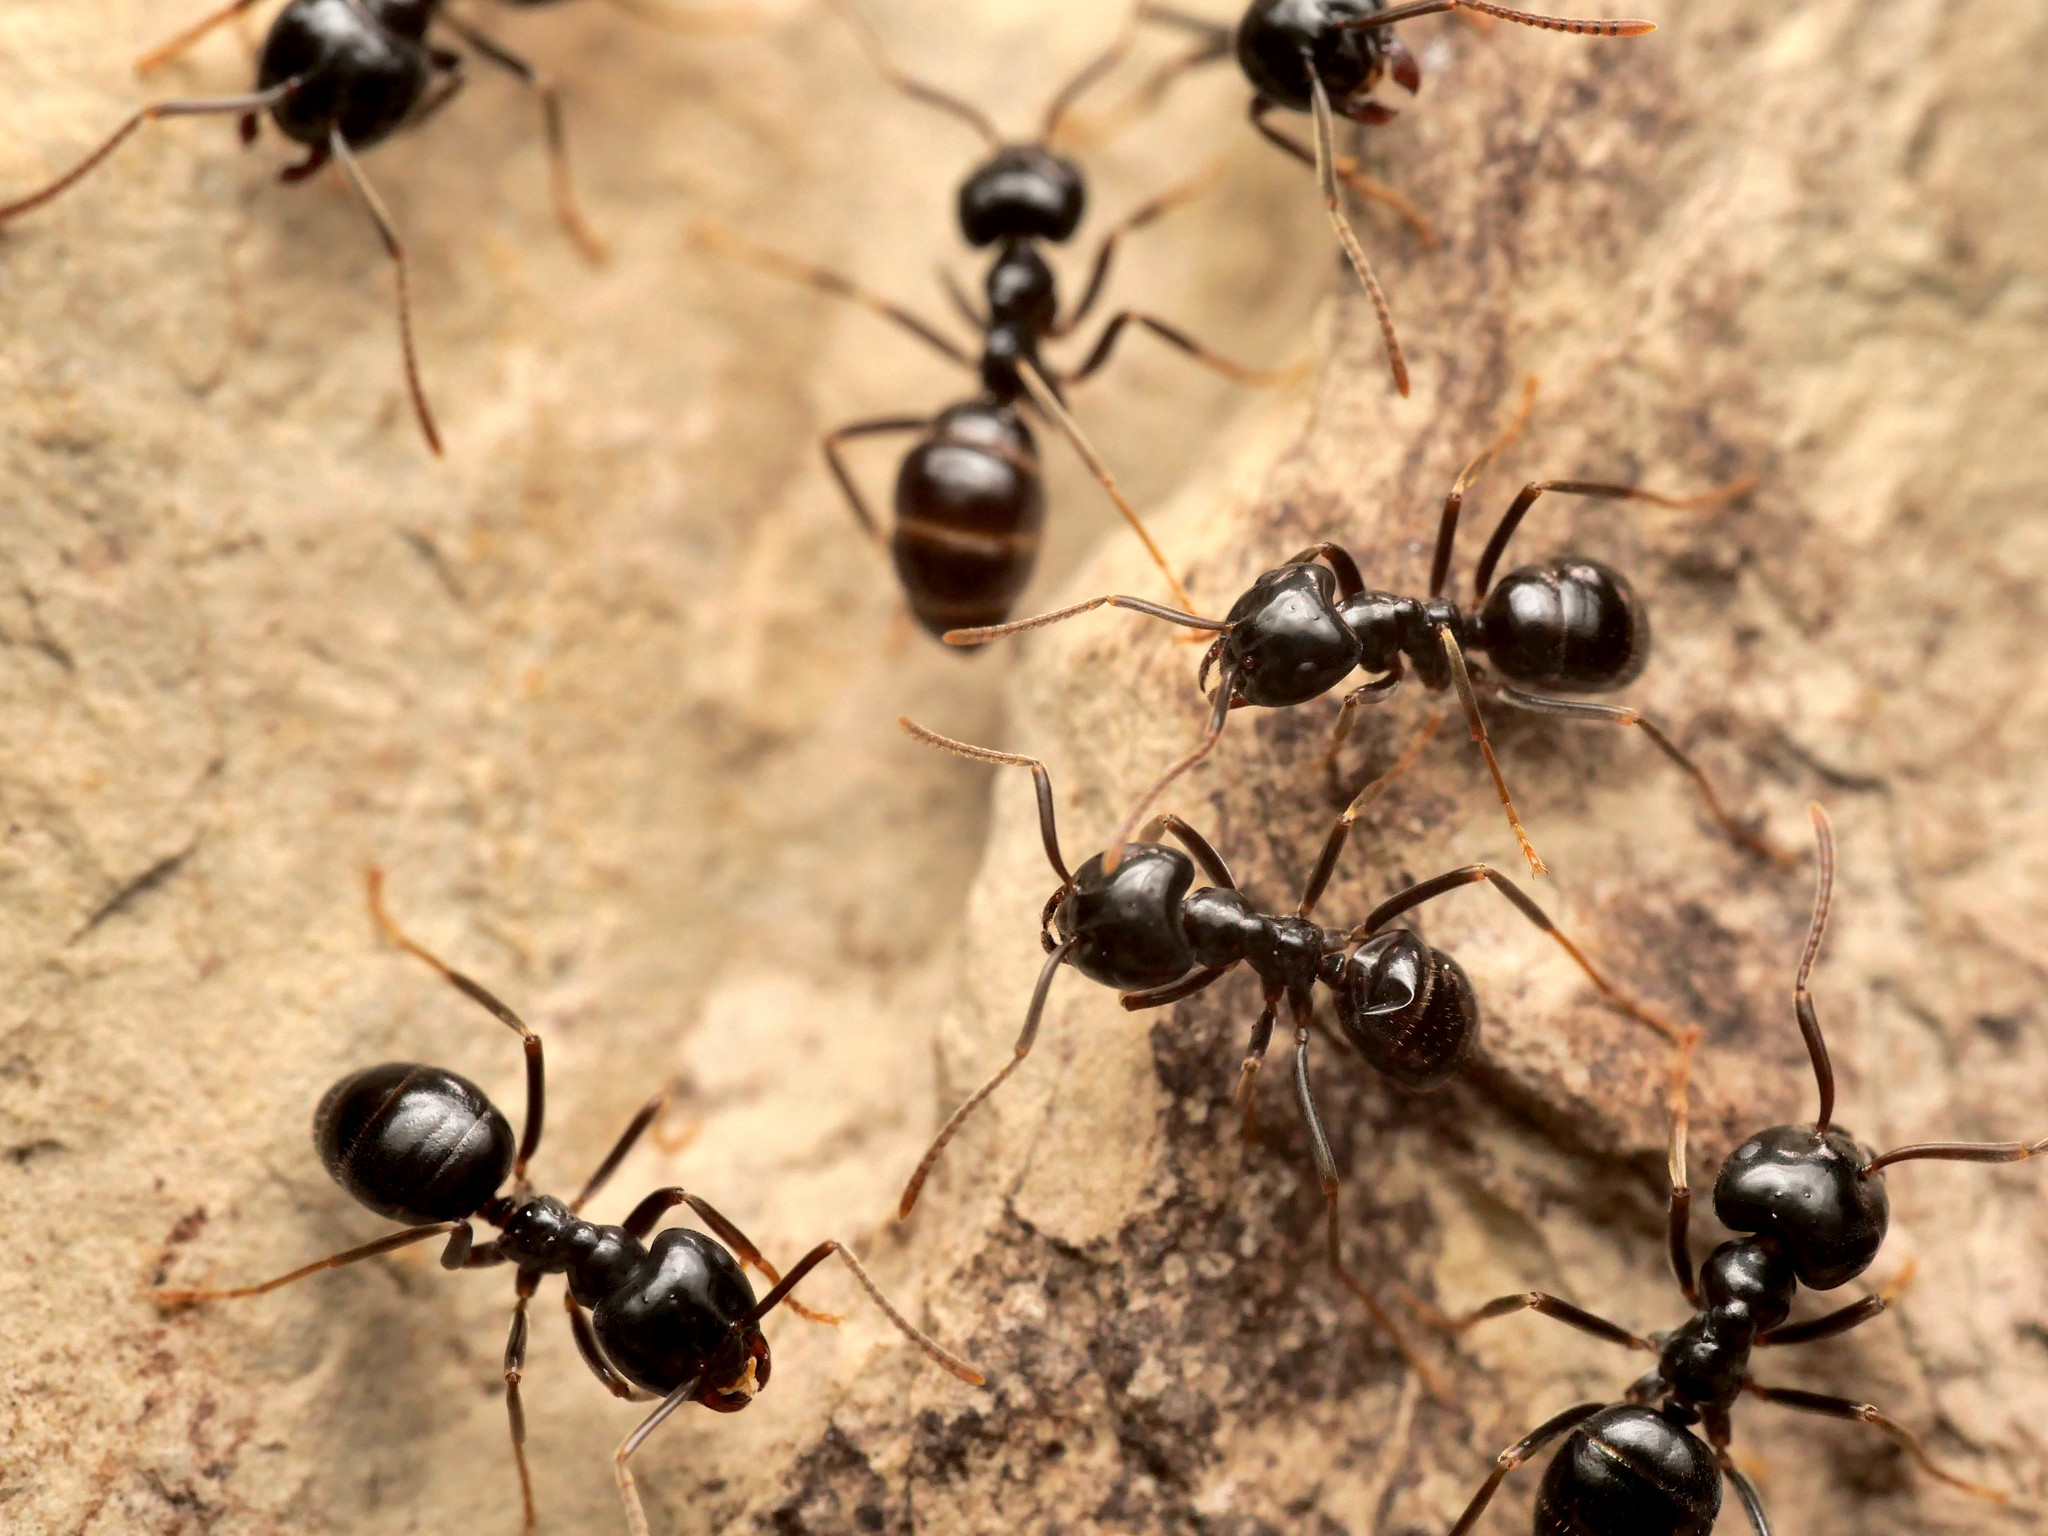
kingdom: Animalia
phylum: Arthropoda
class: Insecta
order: Hymenoptera
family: Formicidae
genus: Lasius
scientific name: Lasius fuliginosus
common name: Jet ant
